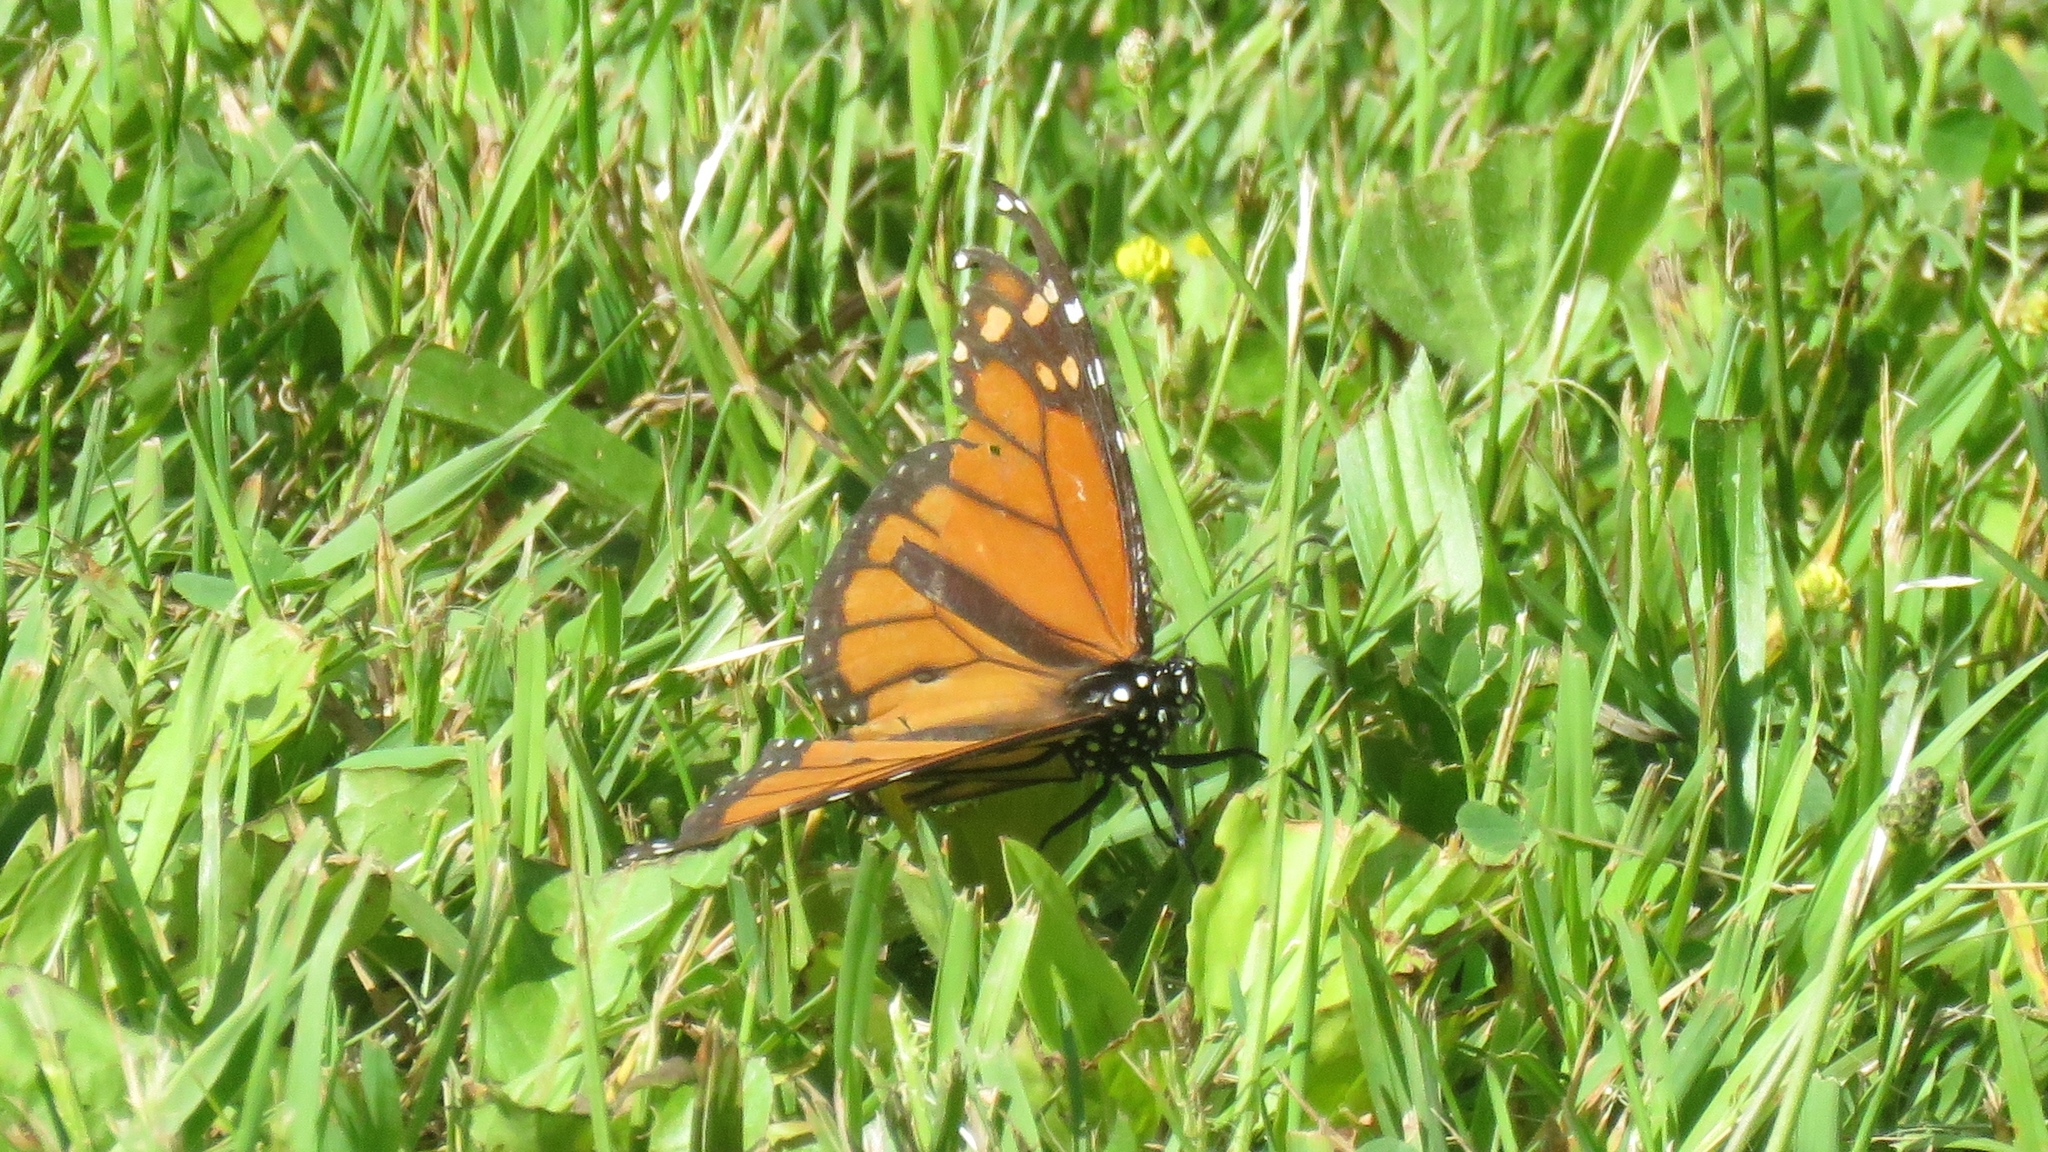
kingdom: Animalia
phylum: Arthropoda
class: Insecta
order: Lepidoptera
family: Nymphalidae
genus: Danaus
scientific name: Danaus plexippus
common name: Monarch
